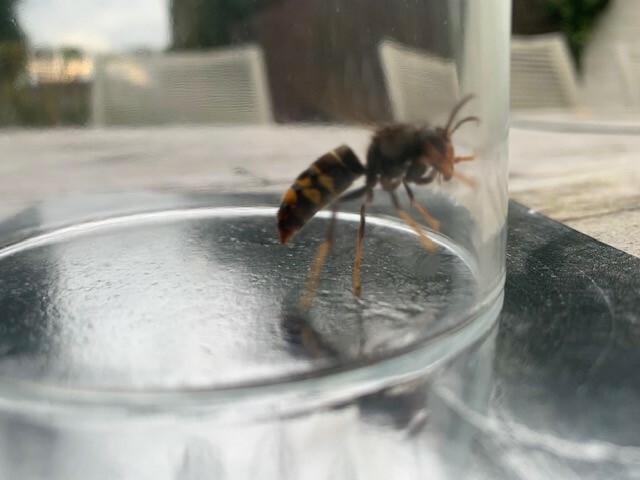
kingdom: Animalia
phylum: Arthropoda
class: Insecta
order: Hymenoptera
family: Vespidae
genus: Vespa
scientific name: Vespa velutina
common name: Asian hornet
